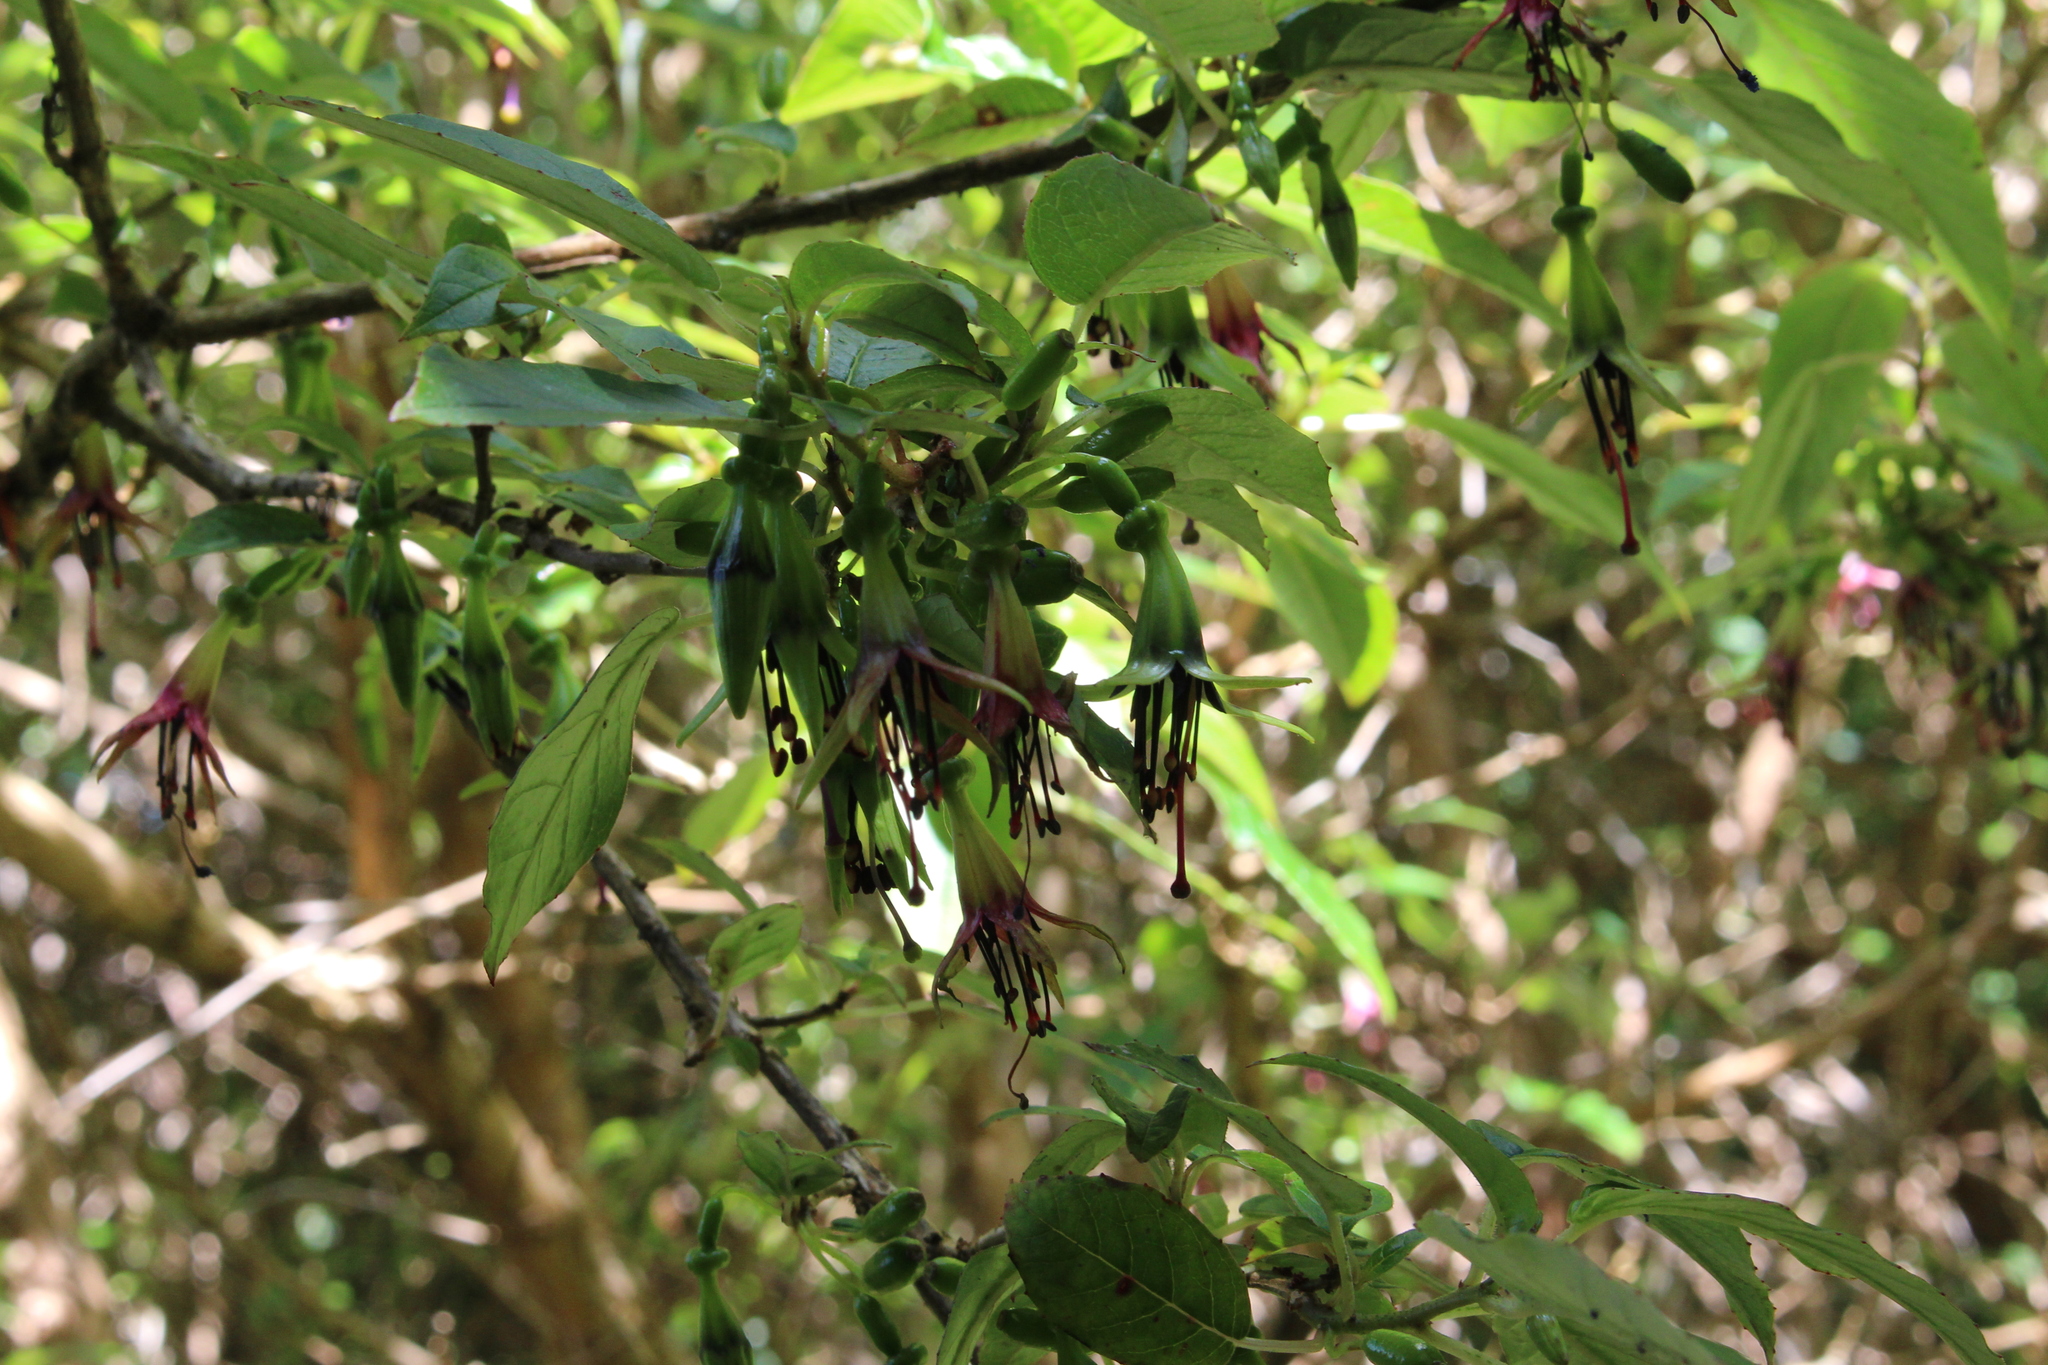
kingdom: Plantae
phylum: Tracheophyta
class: Magnoliopsida
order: Myrtales
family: Onagraceae
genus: Fuchsia
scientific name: Fuchsia excorticata
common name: Tree fuchsia
